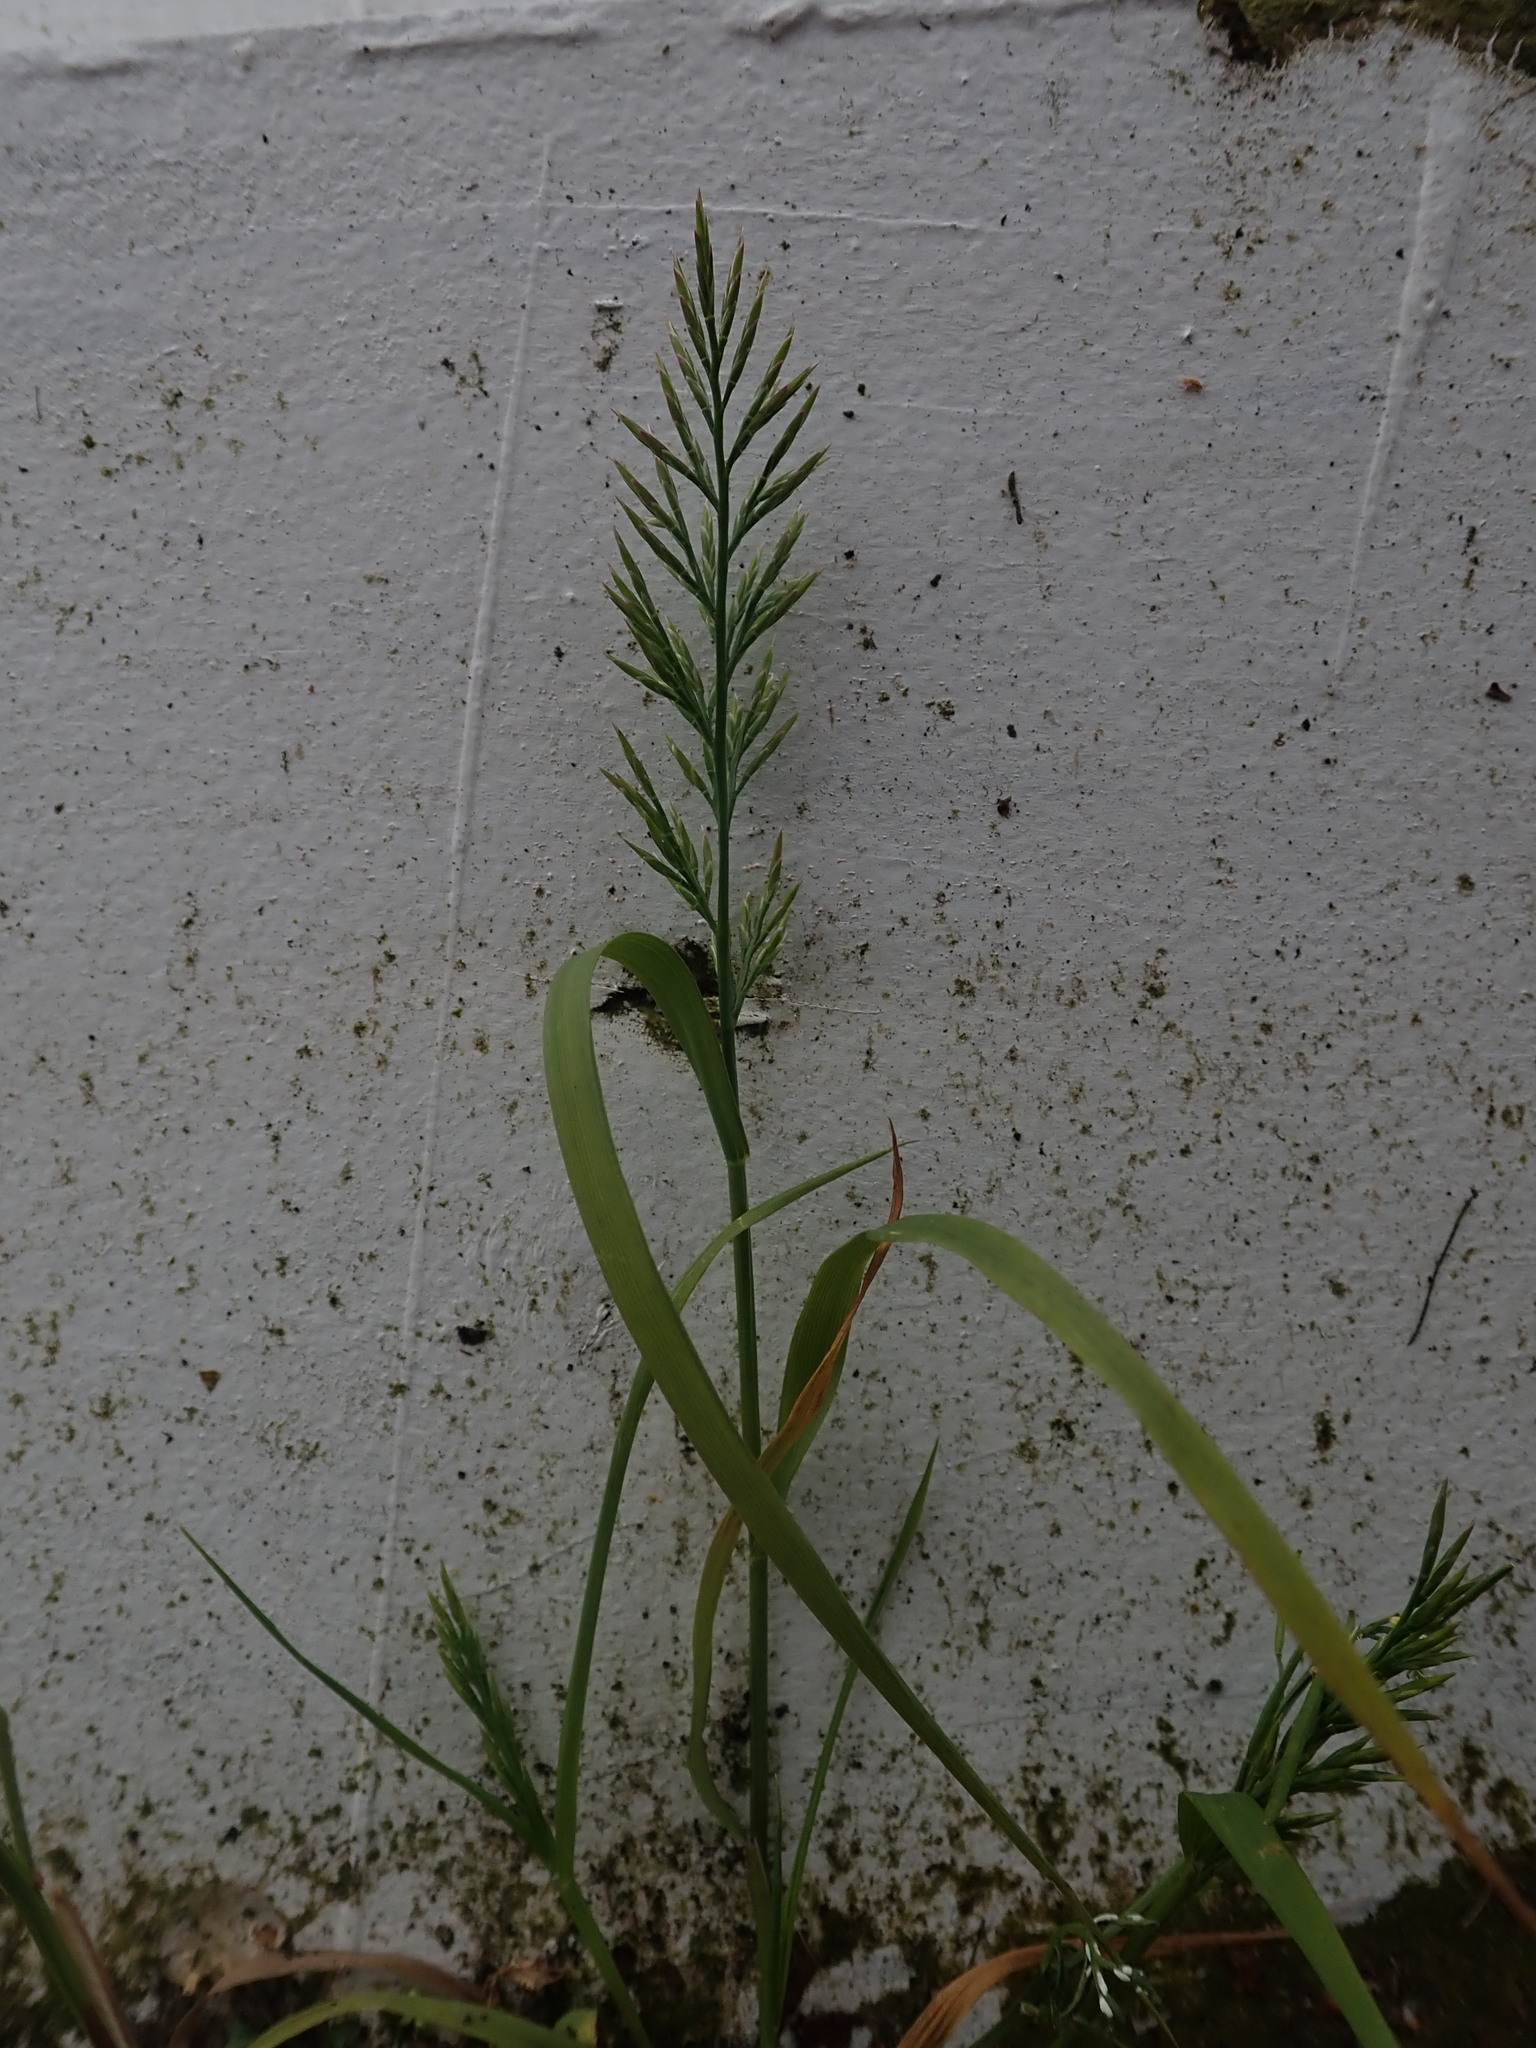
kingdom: Plantae
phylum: Tracheophyta
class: Liliopsida
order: Poales
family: Poaceae
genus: Catapodium
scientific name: Catapodium rigidum
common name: Fern-grass
